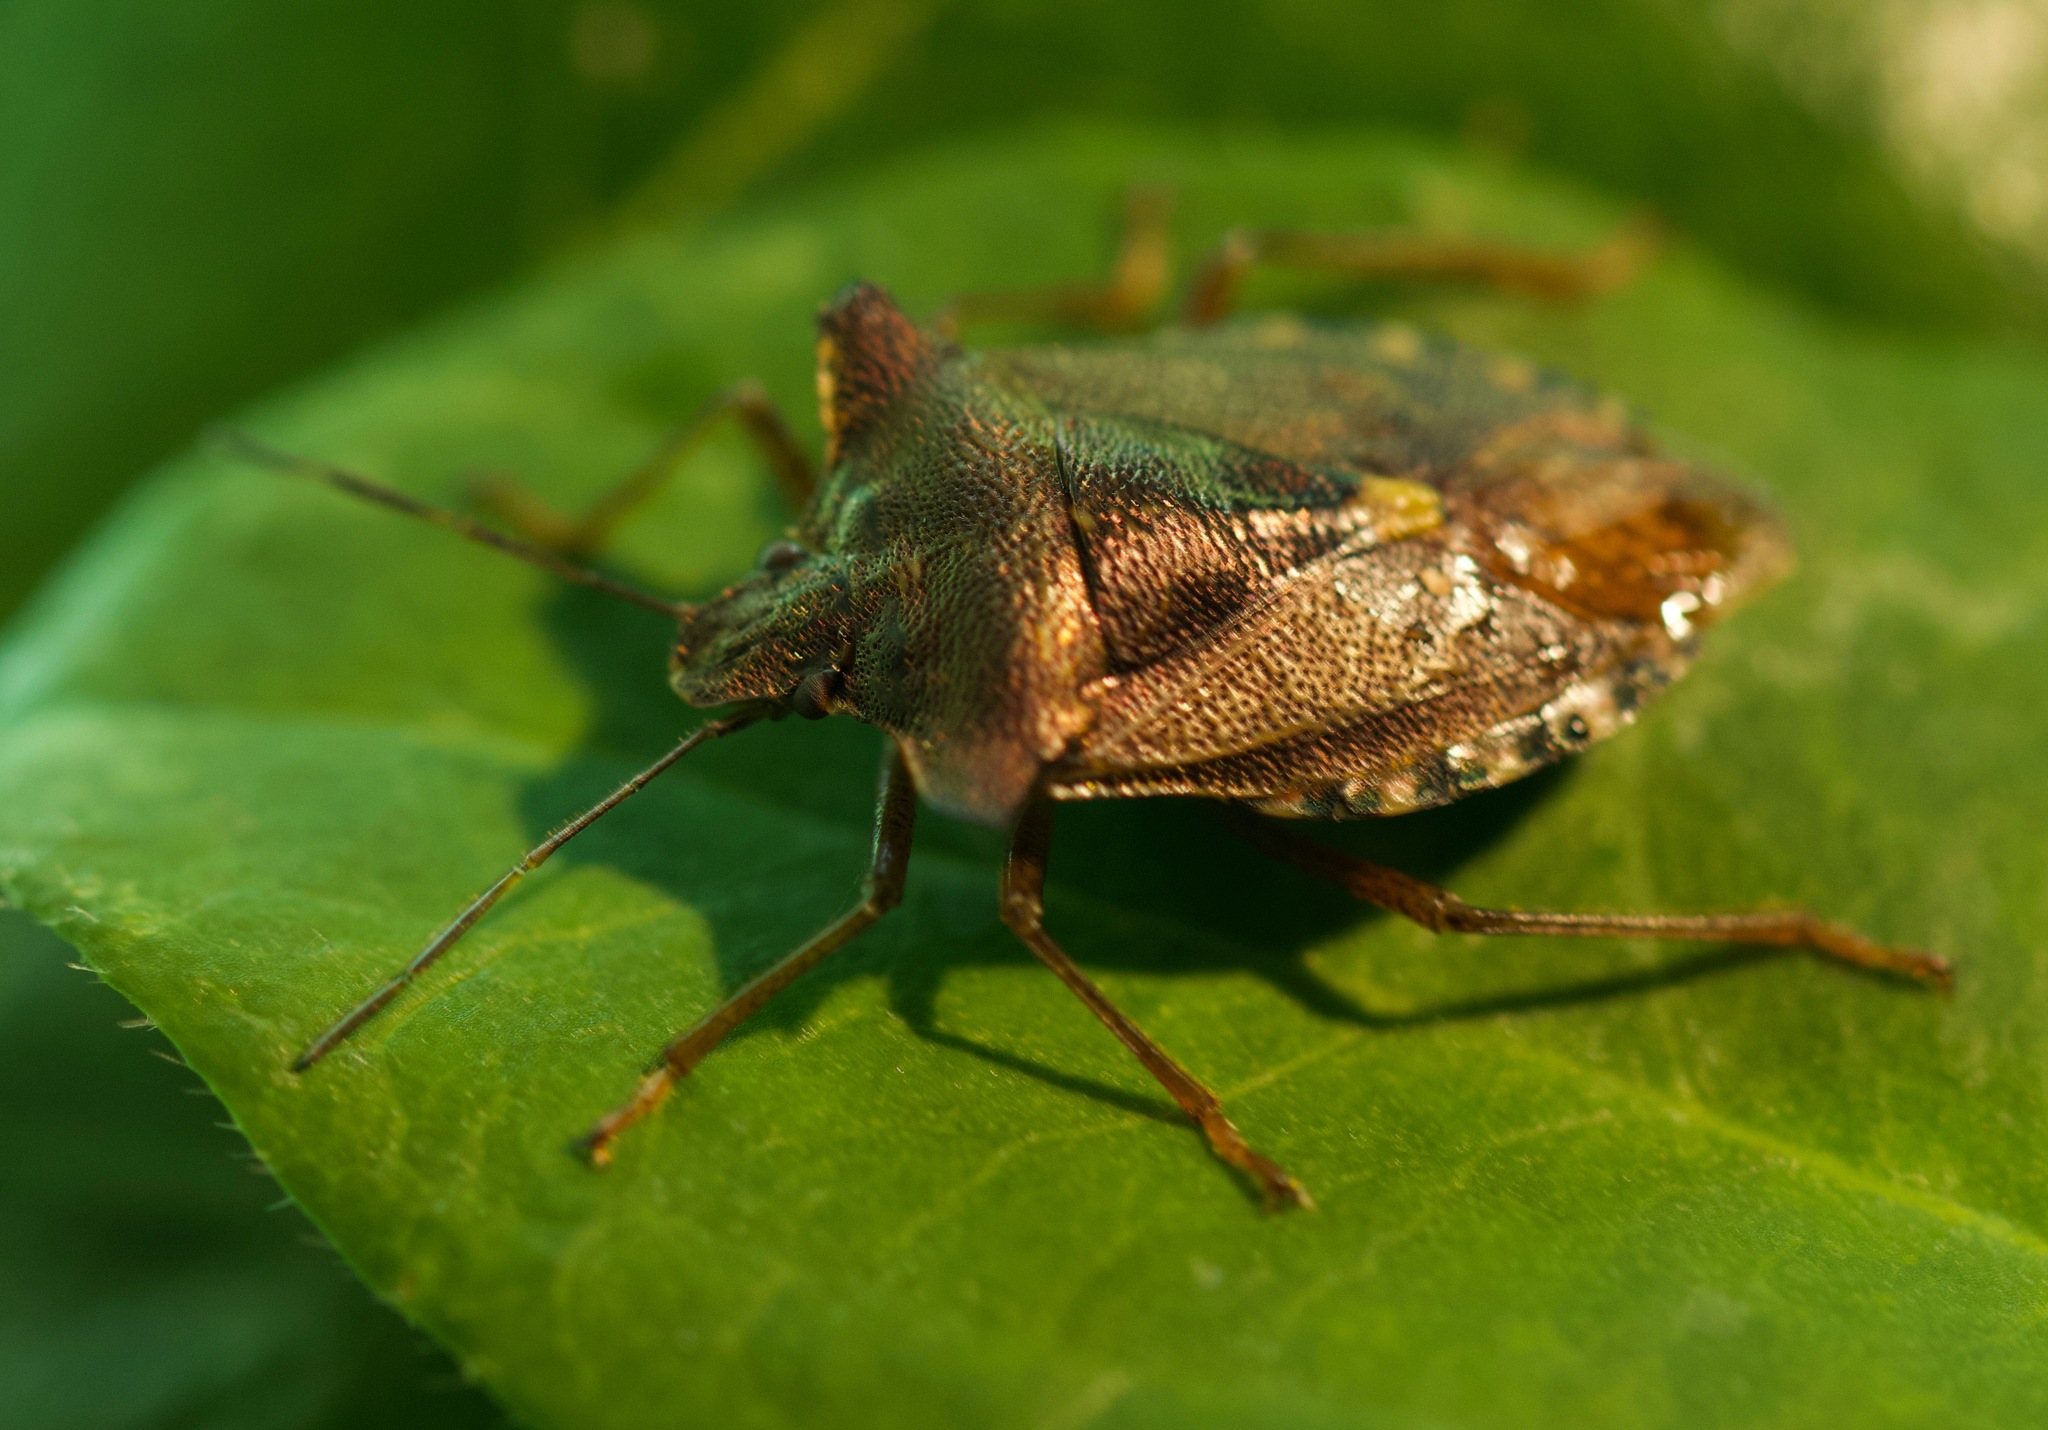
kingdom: Animalia
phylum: Arthropoda
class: Insecta
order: Hemiptera
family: Pentatomidae
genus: Pentatoma
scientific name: Pentatoma rufipes
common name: Forest bug
